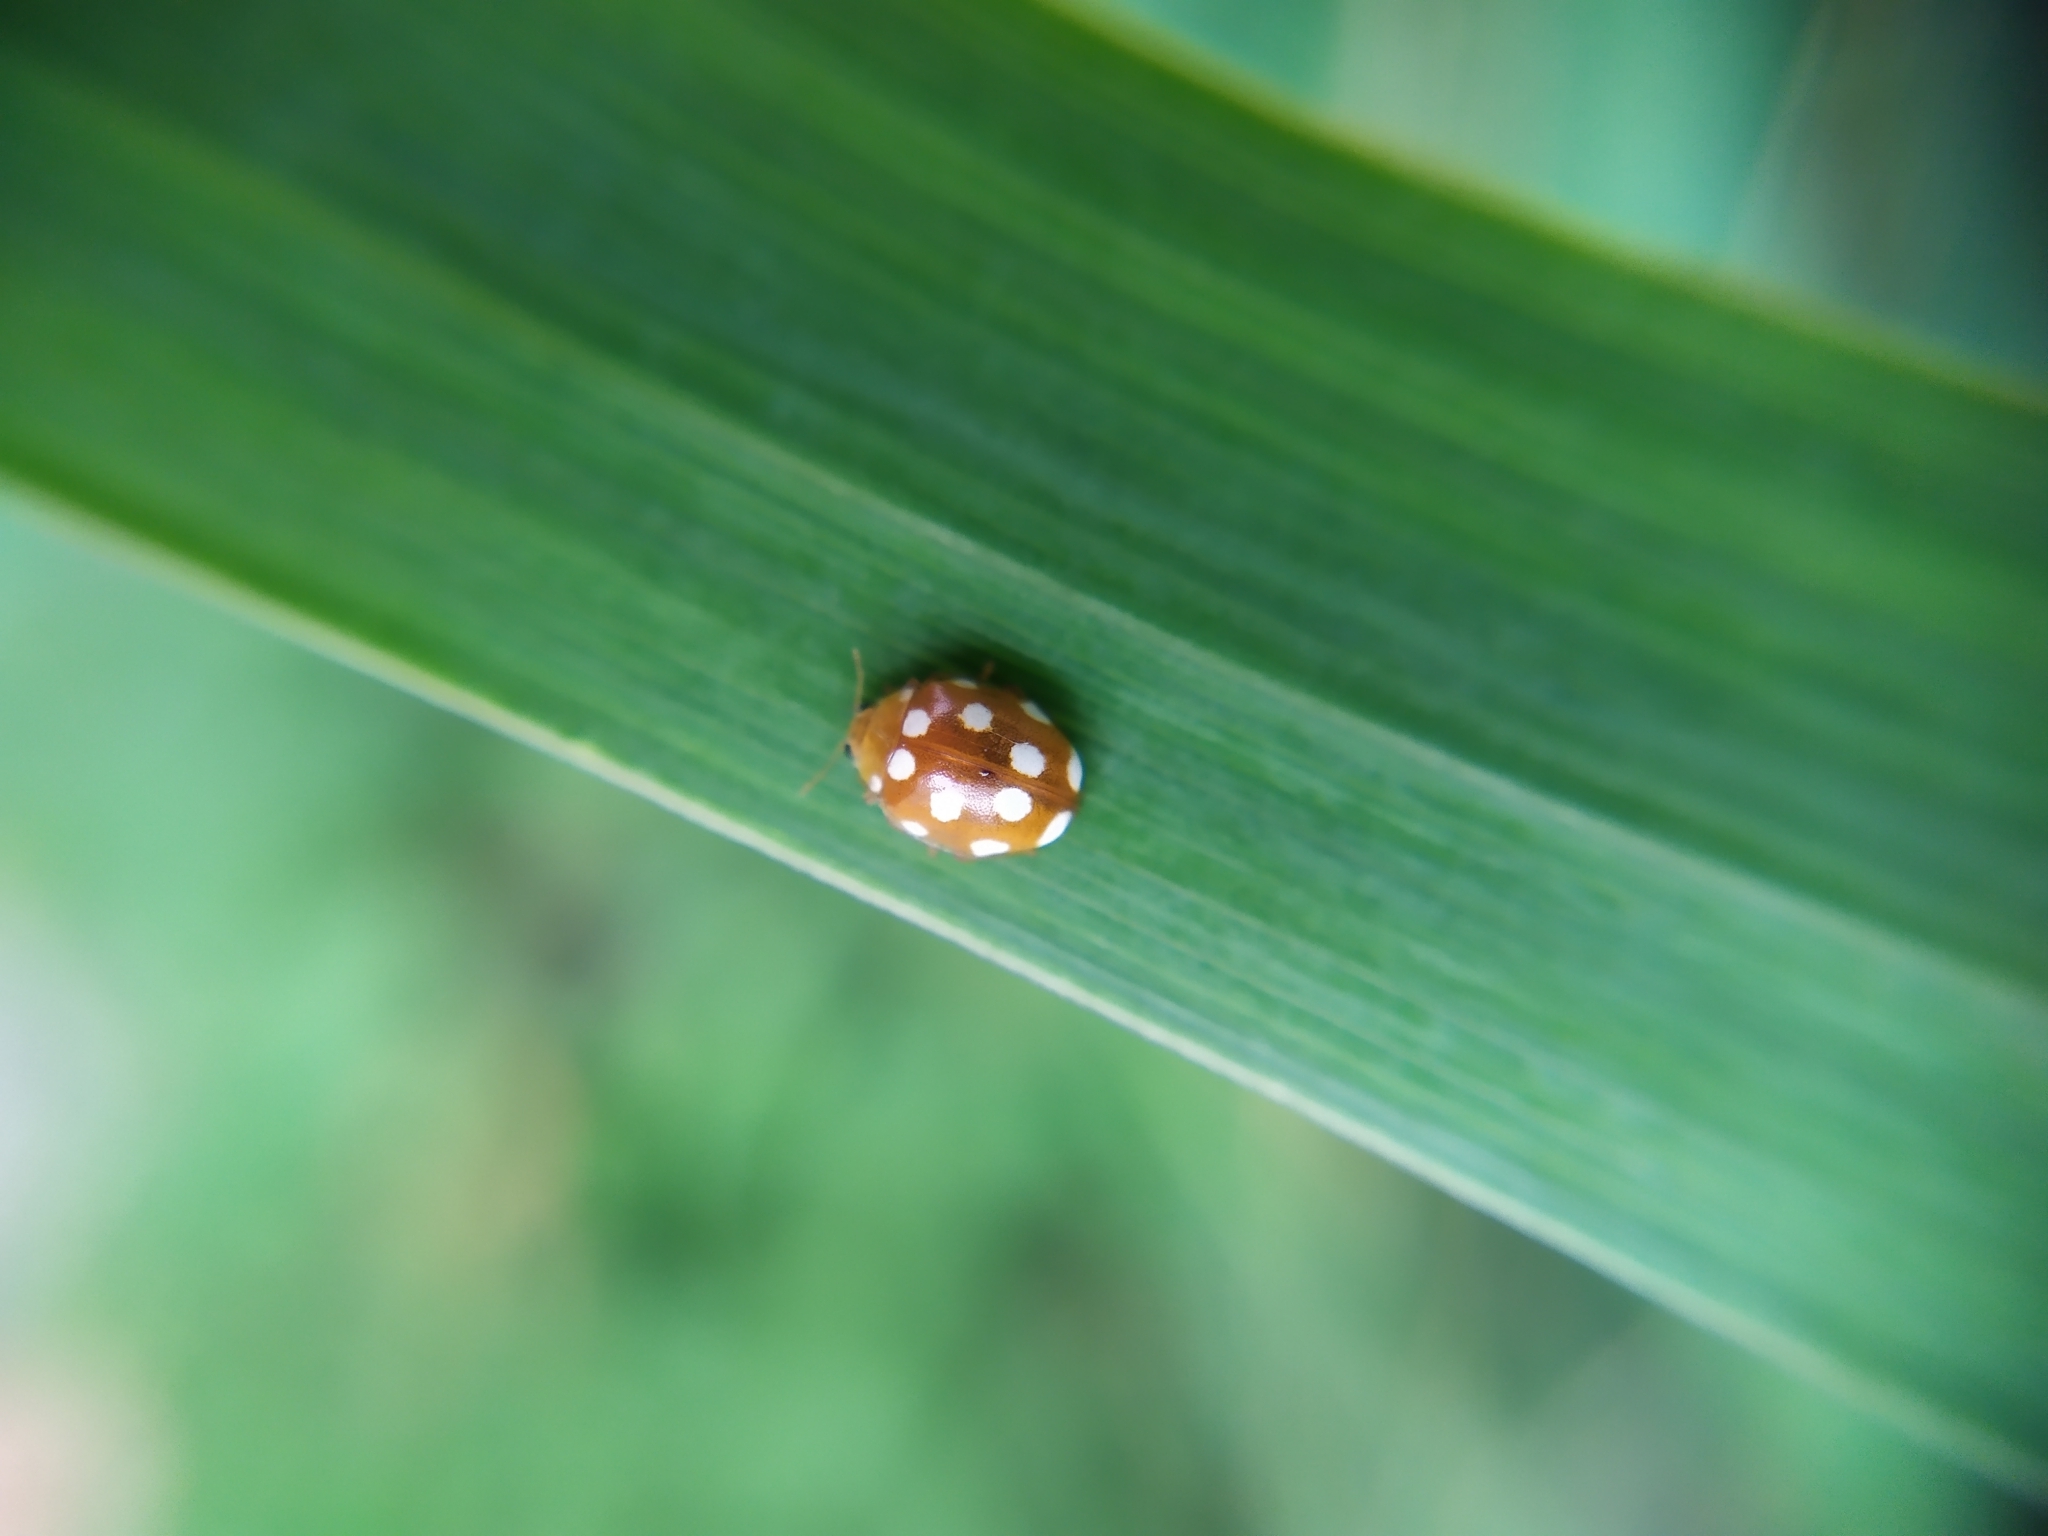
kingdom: Animalia
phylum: Arthropoda
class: Insecta
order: Coleoptera
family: Coccinellidae
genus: Vibidia
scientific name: Vibidia duodecimguttata
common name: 12-spot ladybird
